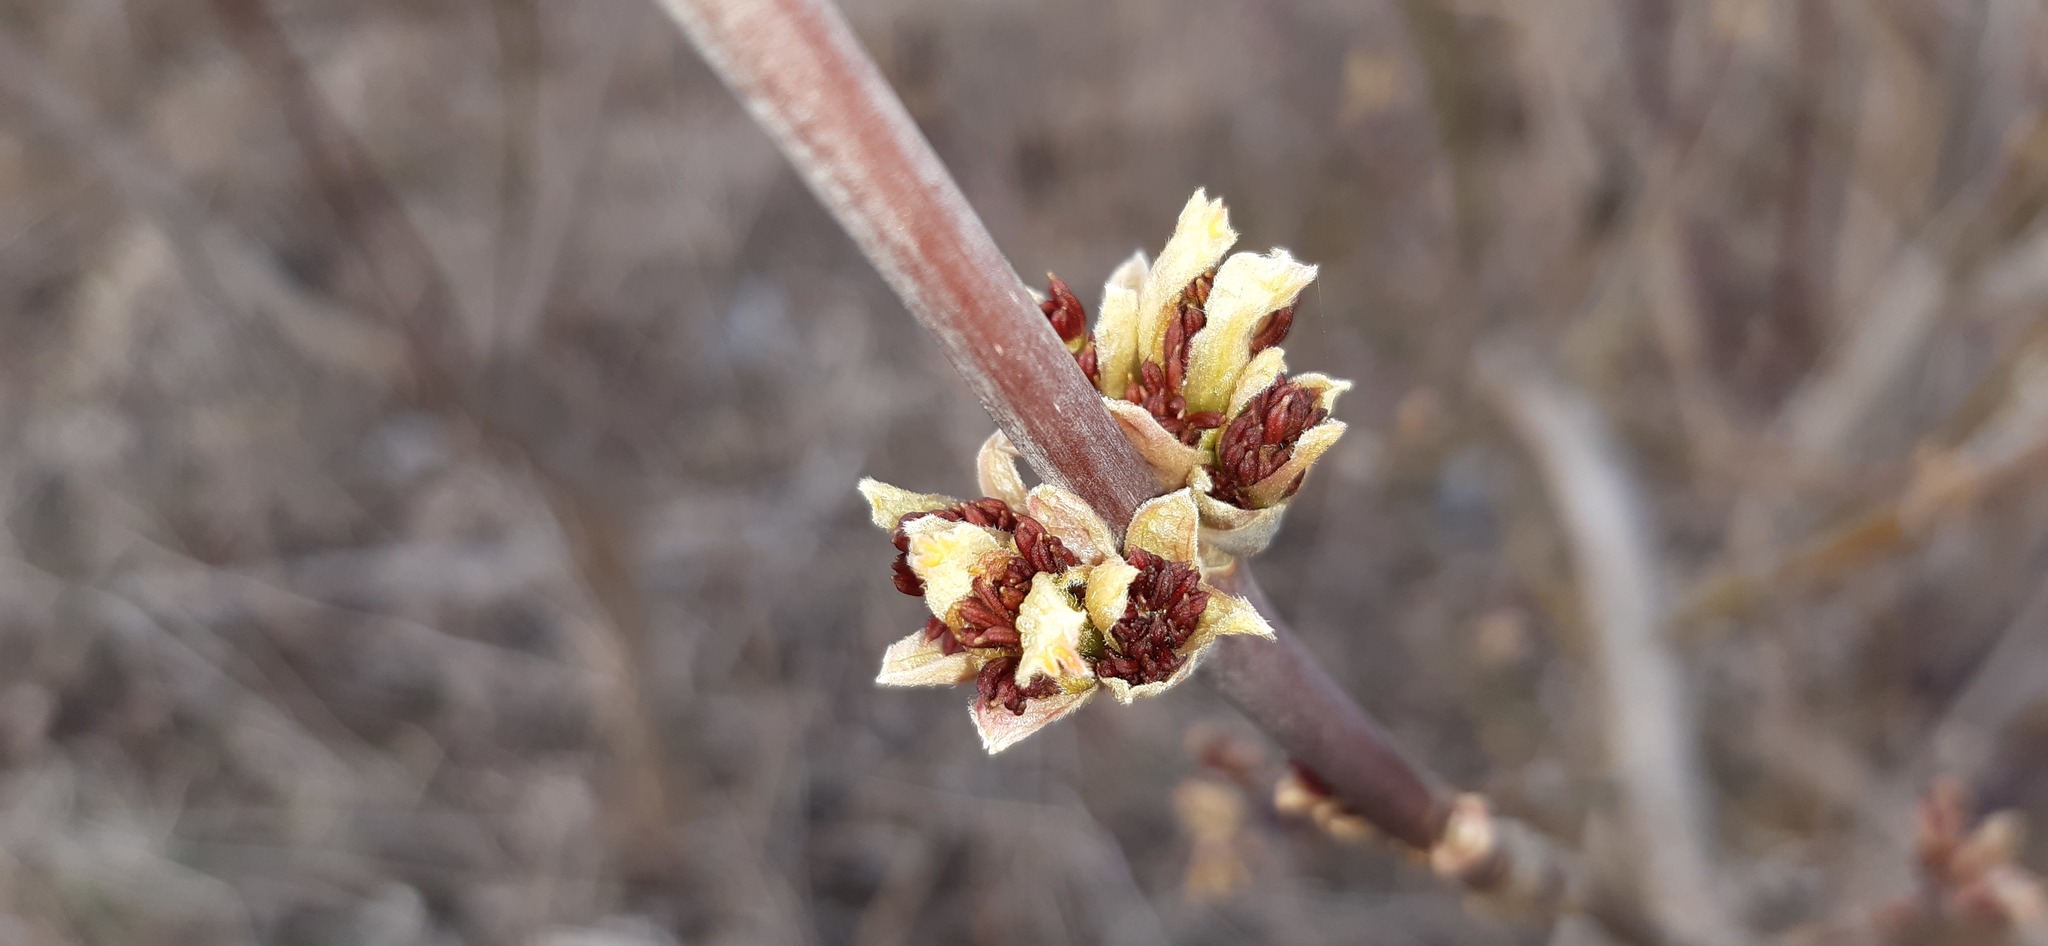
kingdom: Plantae
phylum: Tracheophyta
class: Magnoliopsida
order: Sapindales
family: Sapindaceae
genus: Acer
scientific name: Acer negundo
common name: Ashleaf maple
